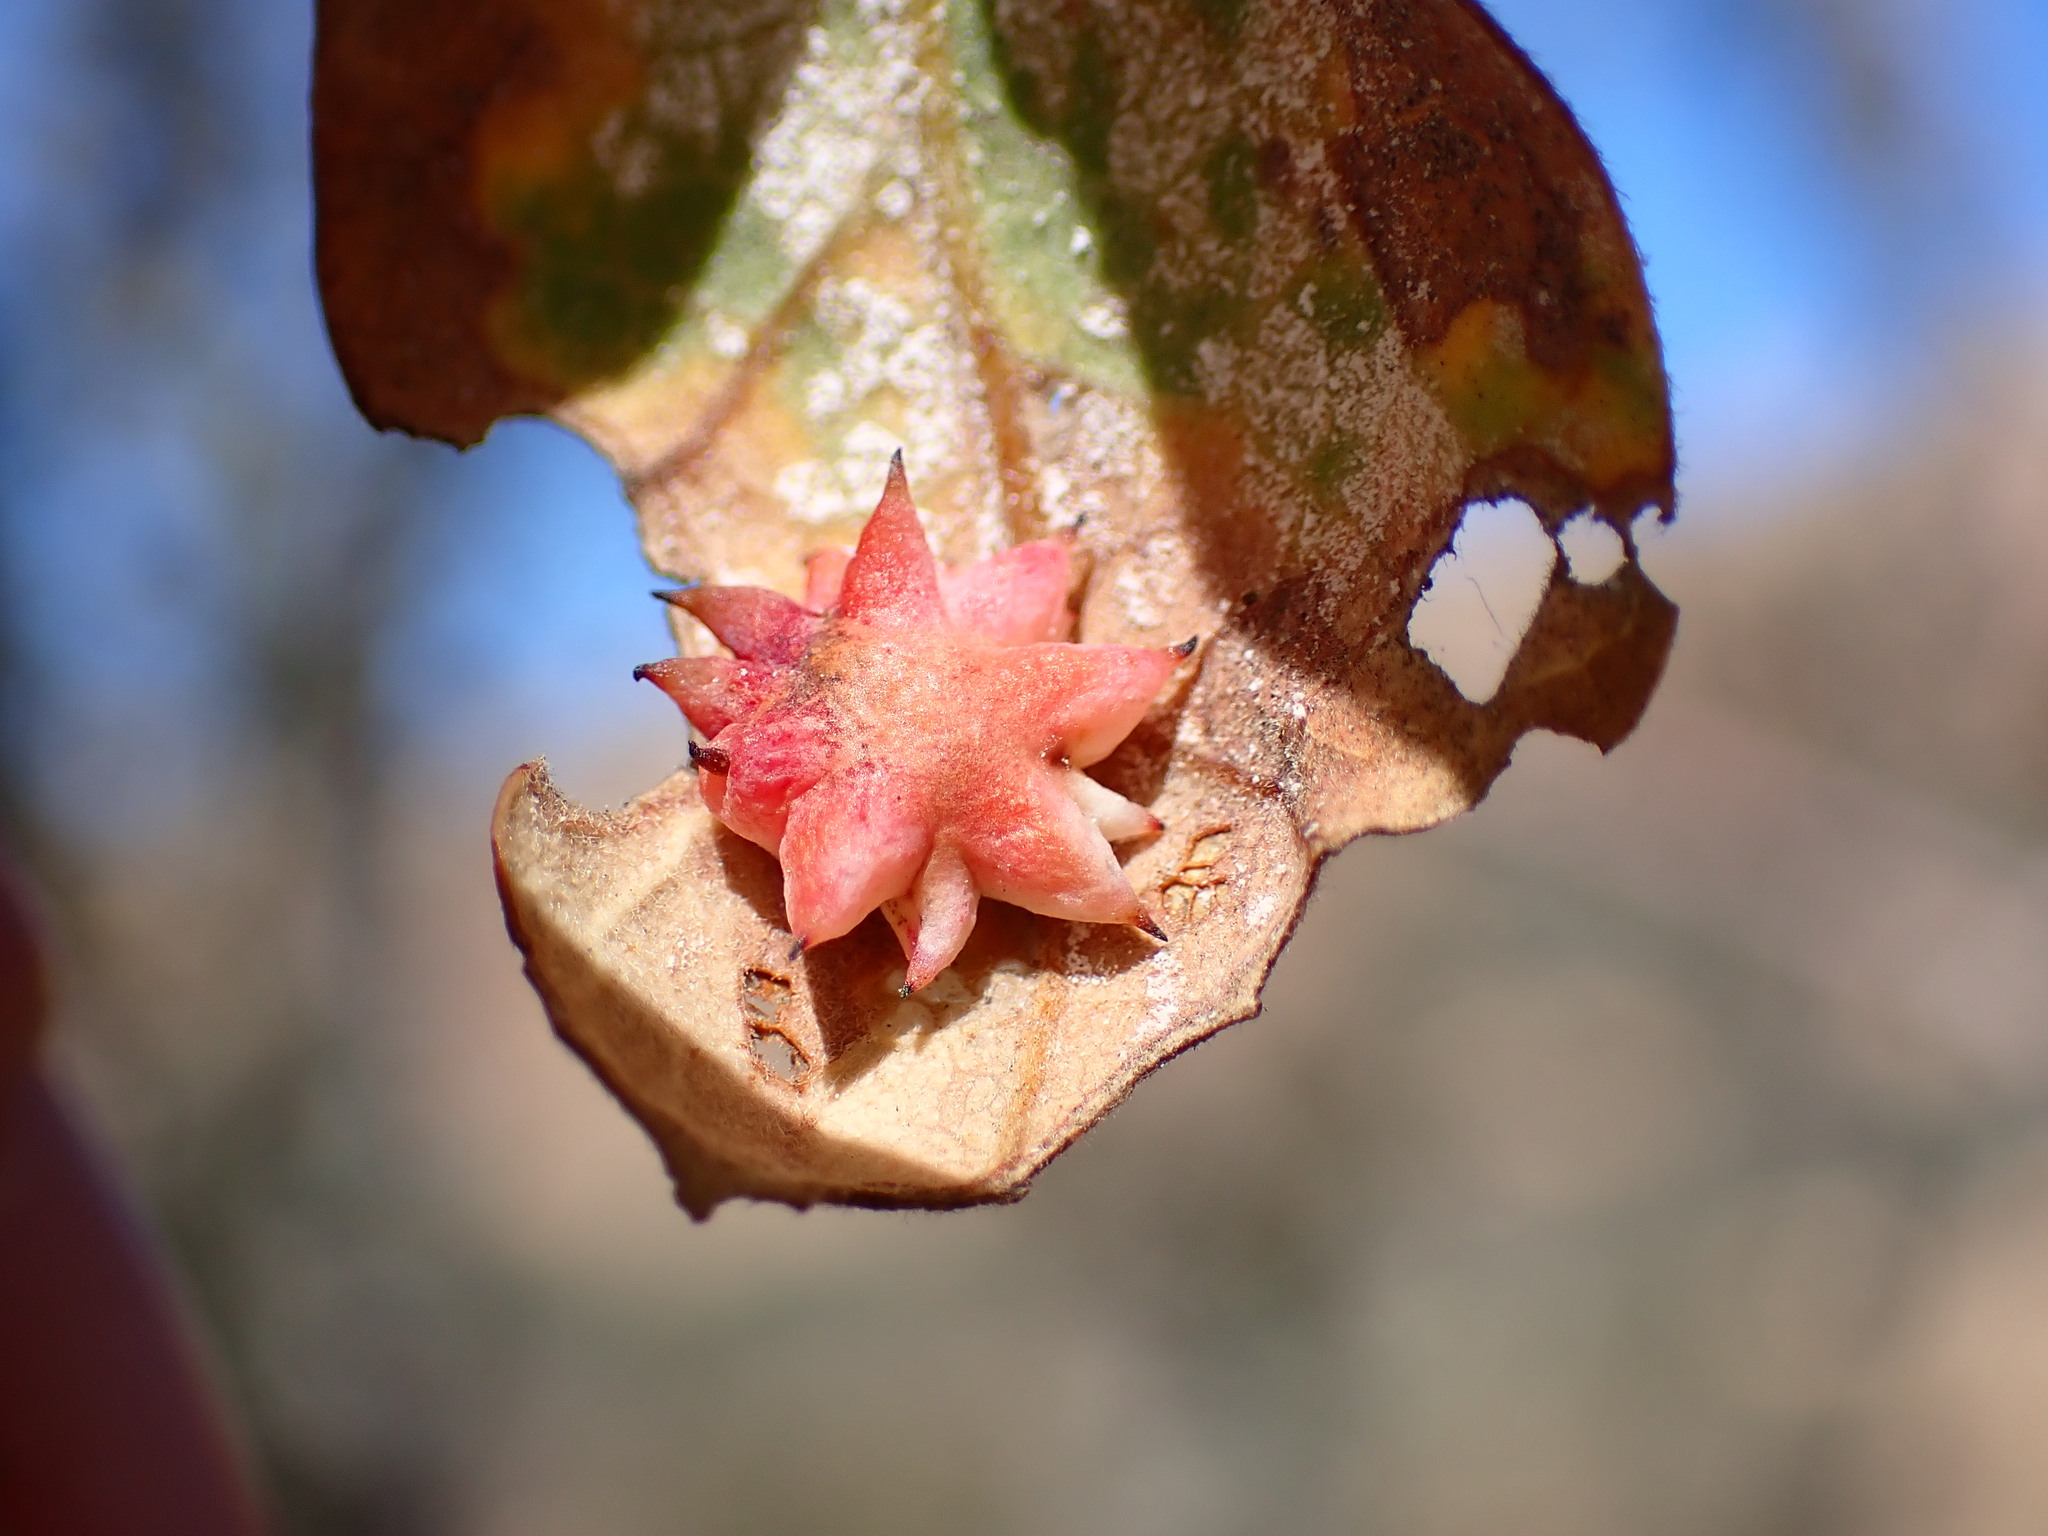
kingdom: Animalia
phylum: Arthropoda
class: Insecta
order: Hymenoptera
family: Cynipidae
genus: Cynips
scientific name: Cynips douglasi
